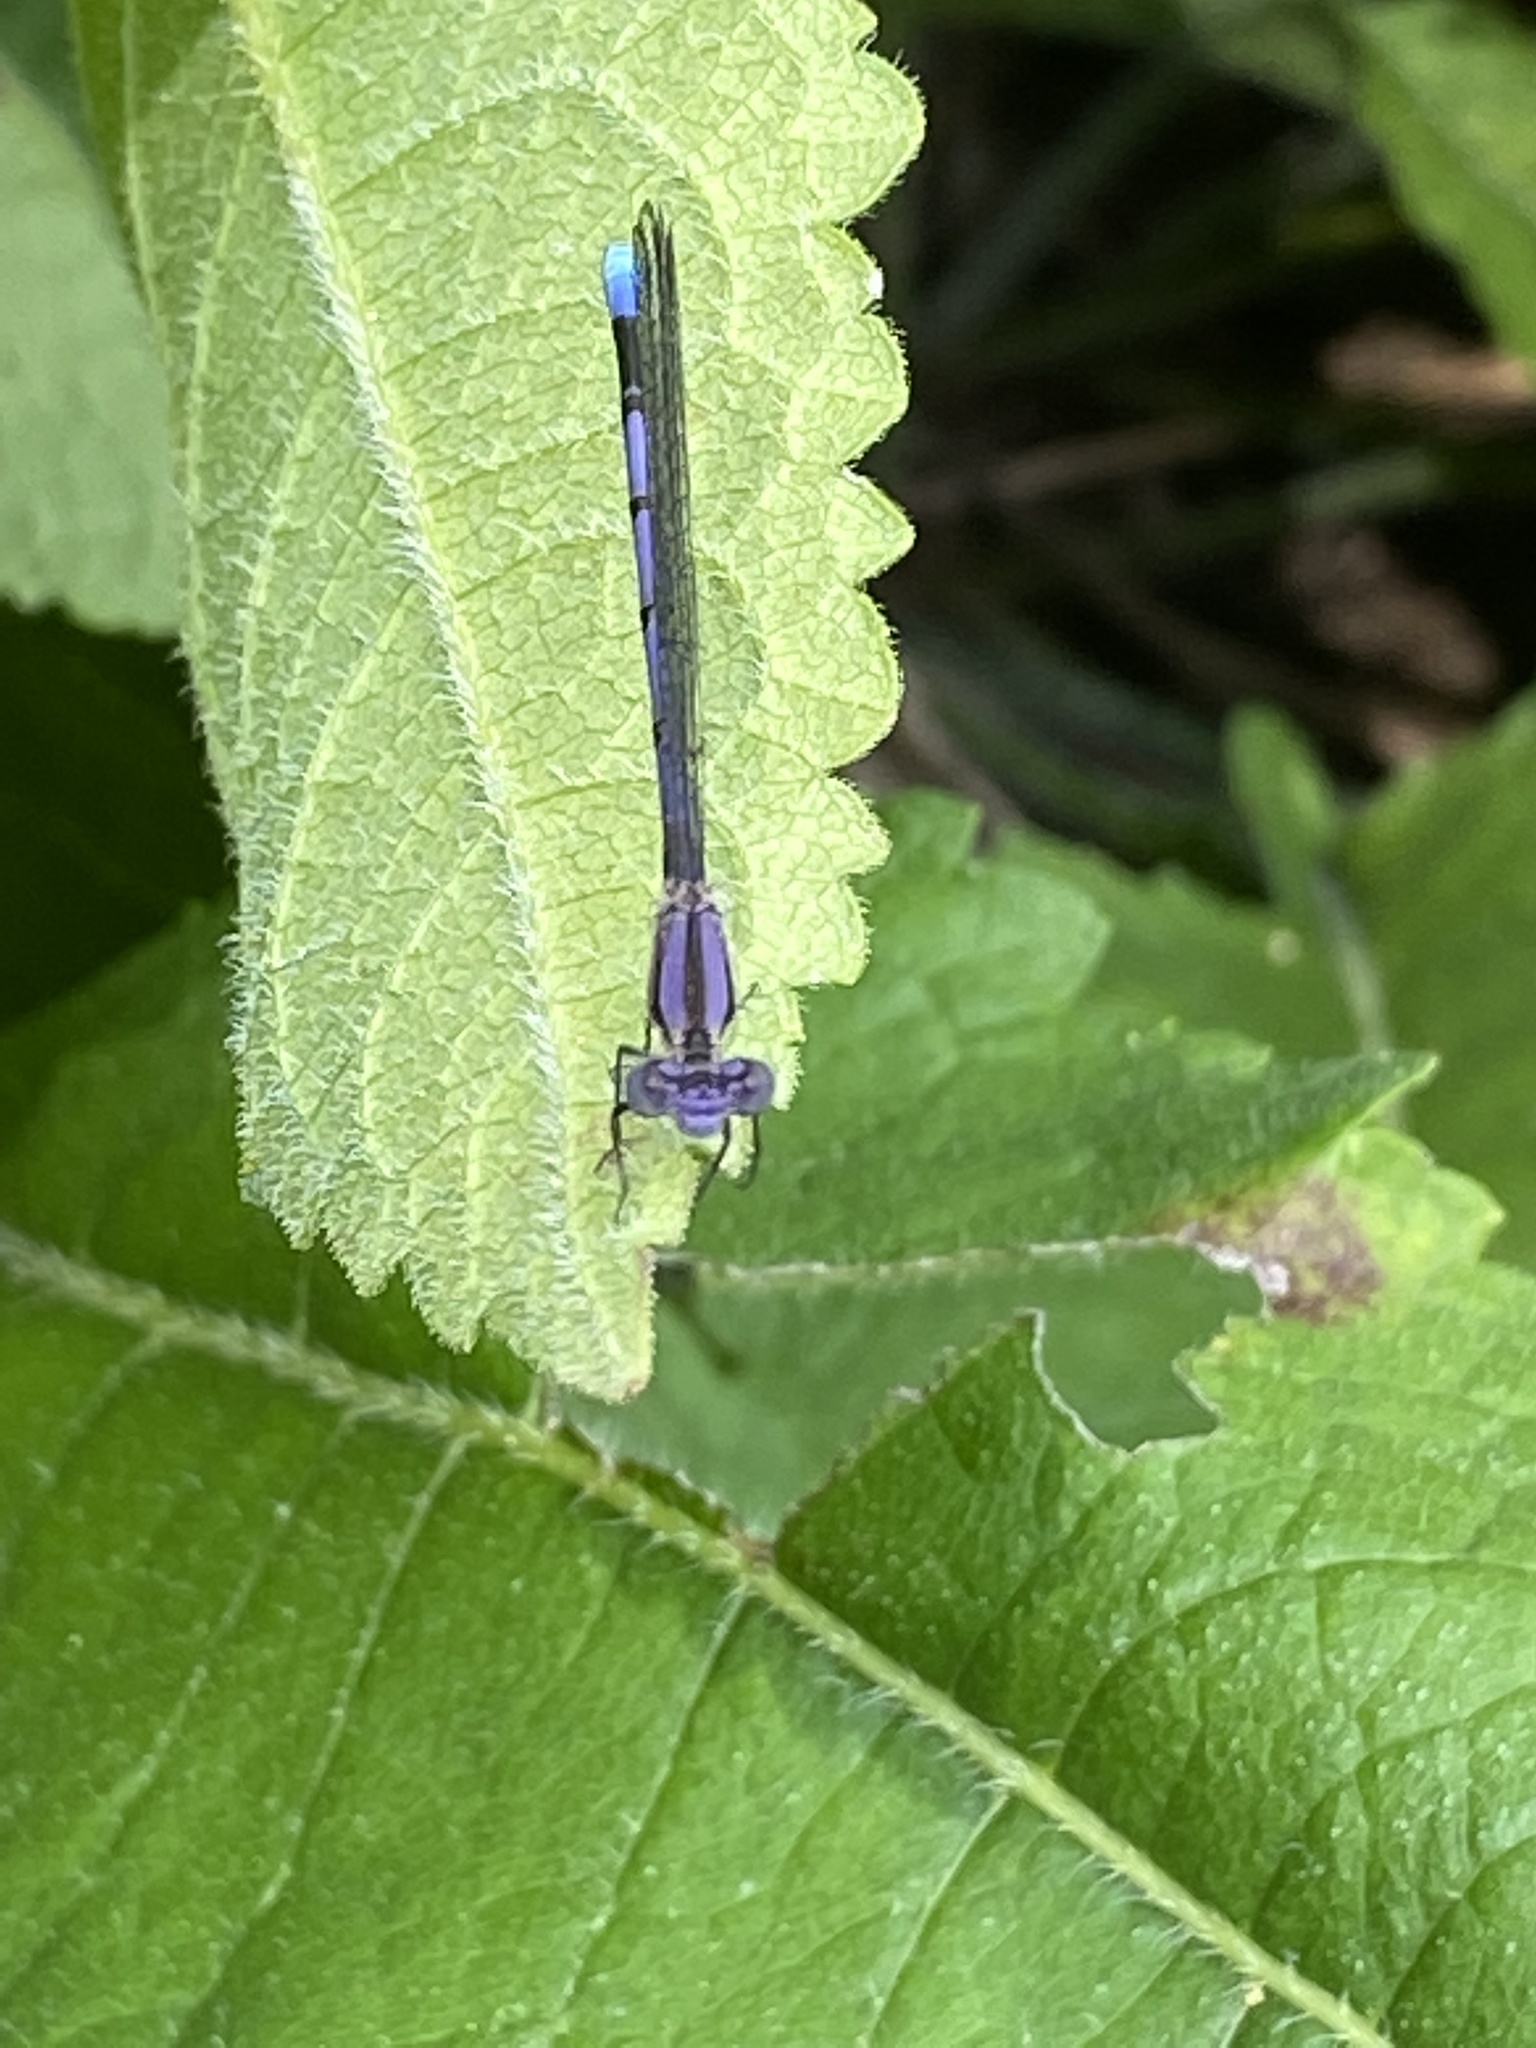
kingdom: Animalia
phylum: Arthropoda
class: Insecta
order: Odonata
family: Coenagrionidae
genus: Argia
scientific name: Argia fumipennis
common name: Variable dancer
